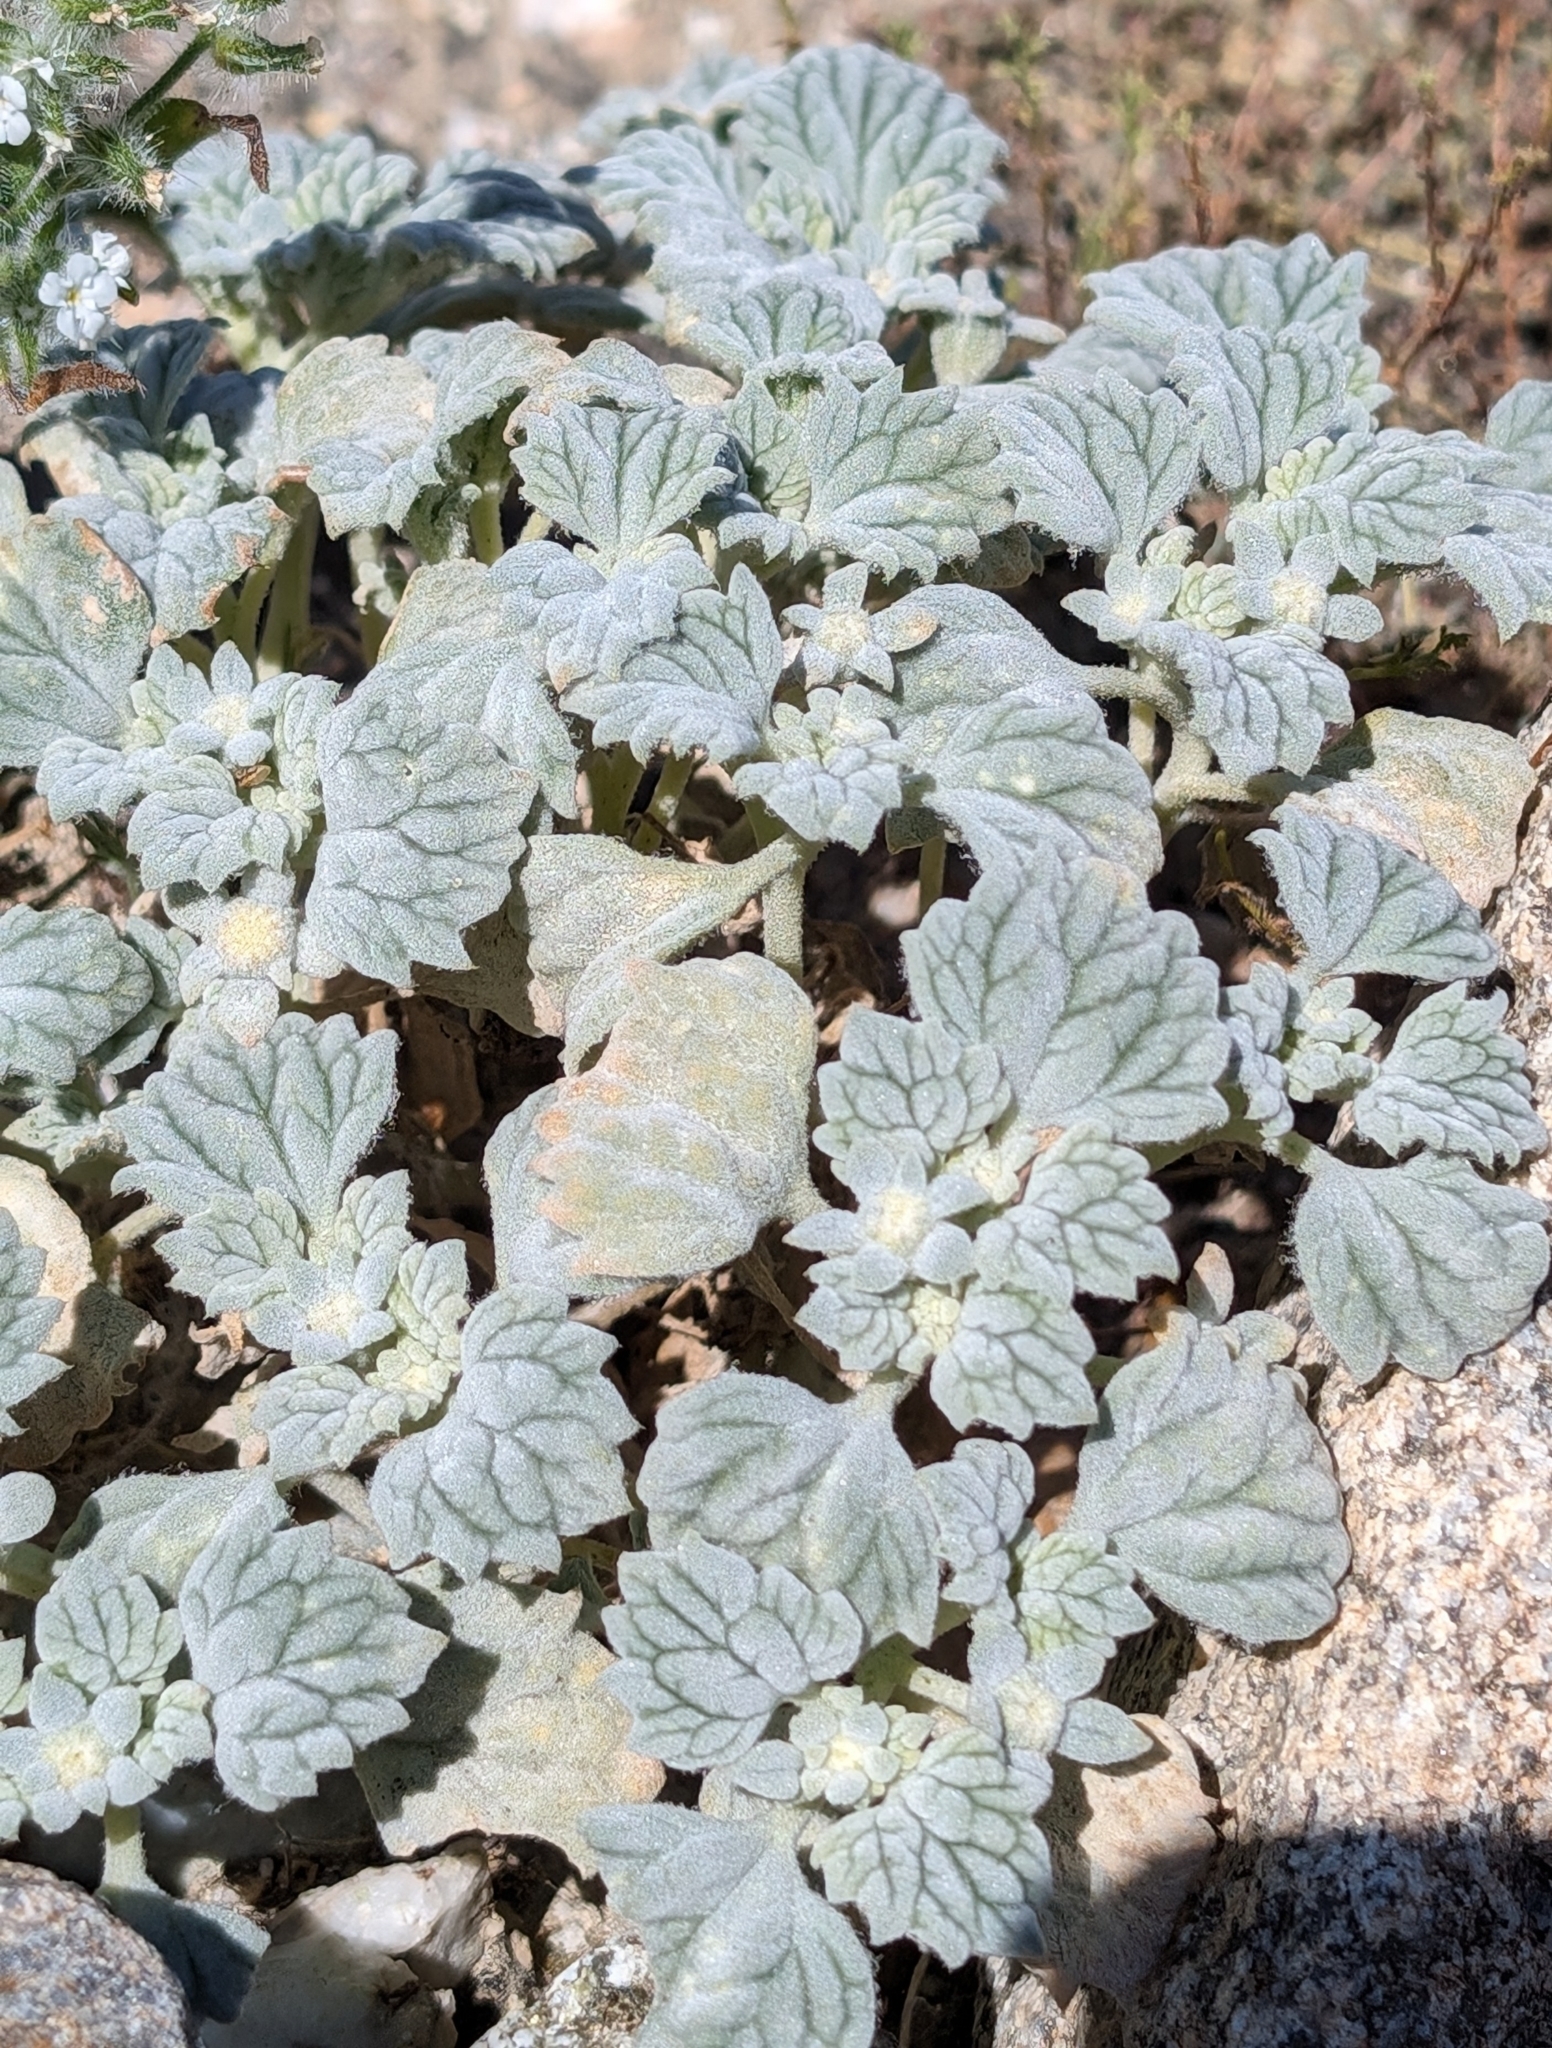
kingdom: Plantae
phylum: Tracheophyta
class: Magnoliopsida
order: Asterales
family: Asteraceae
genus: Psathyrotes
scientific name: Psathyrotes ramosissima
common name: Turtleback
